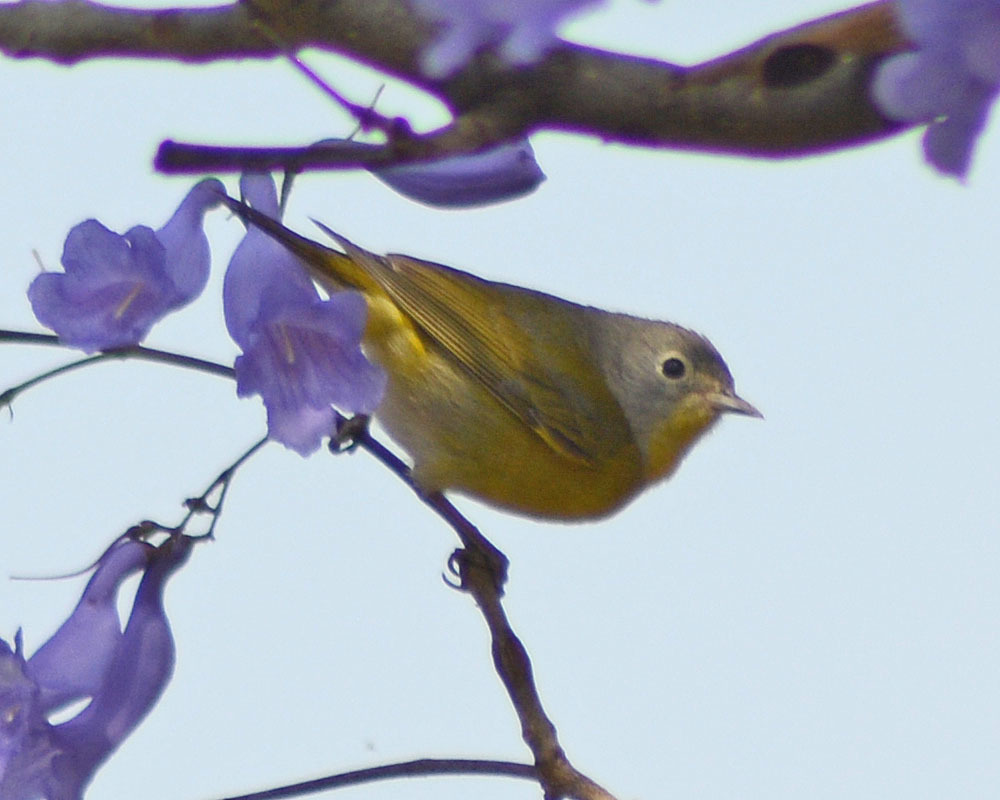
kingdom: Animalia
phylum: Chordata
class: Aves
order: Passeriformes
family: Parulidae
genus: Leiothlypis
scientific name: Leiothlypis ruficapilla
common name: Nashville warbler
